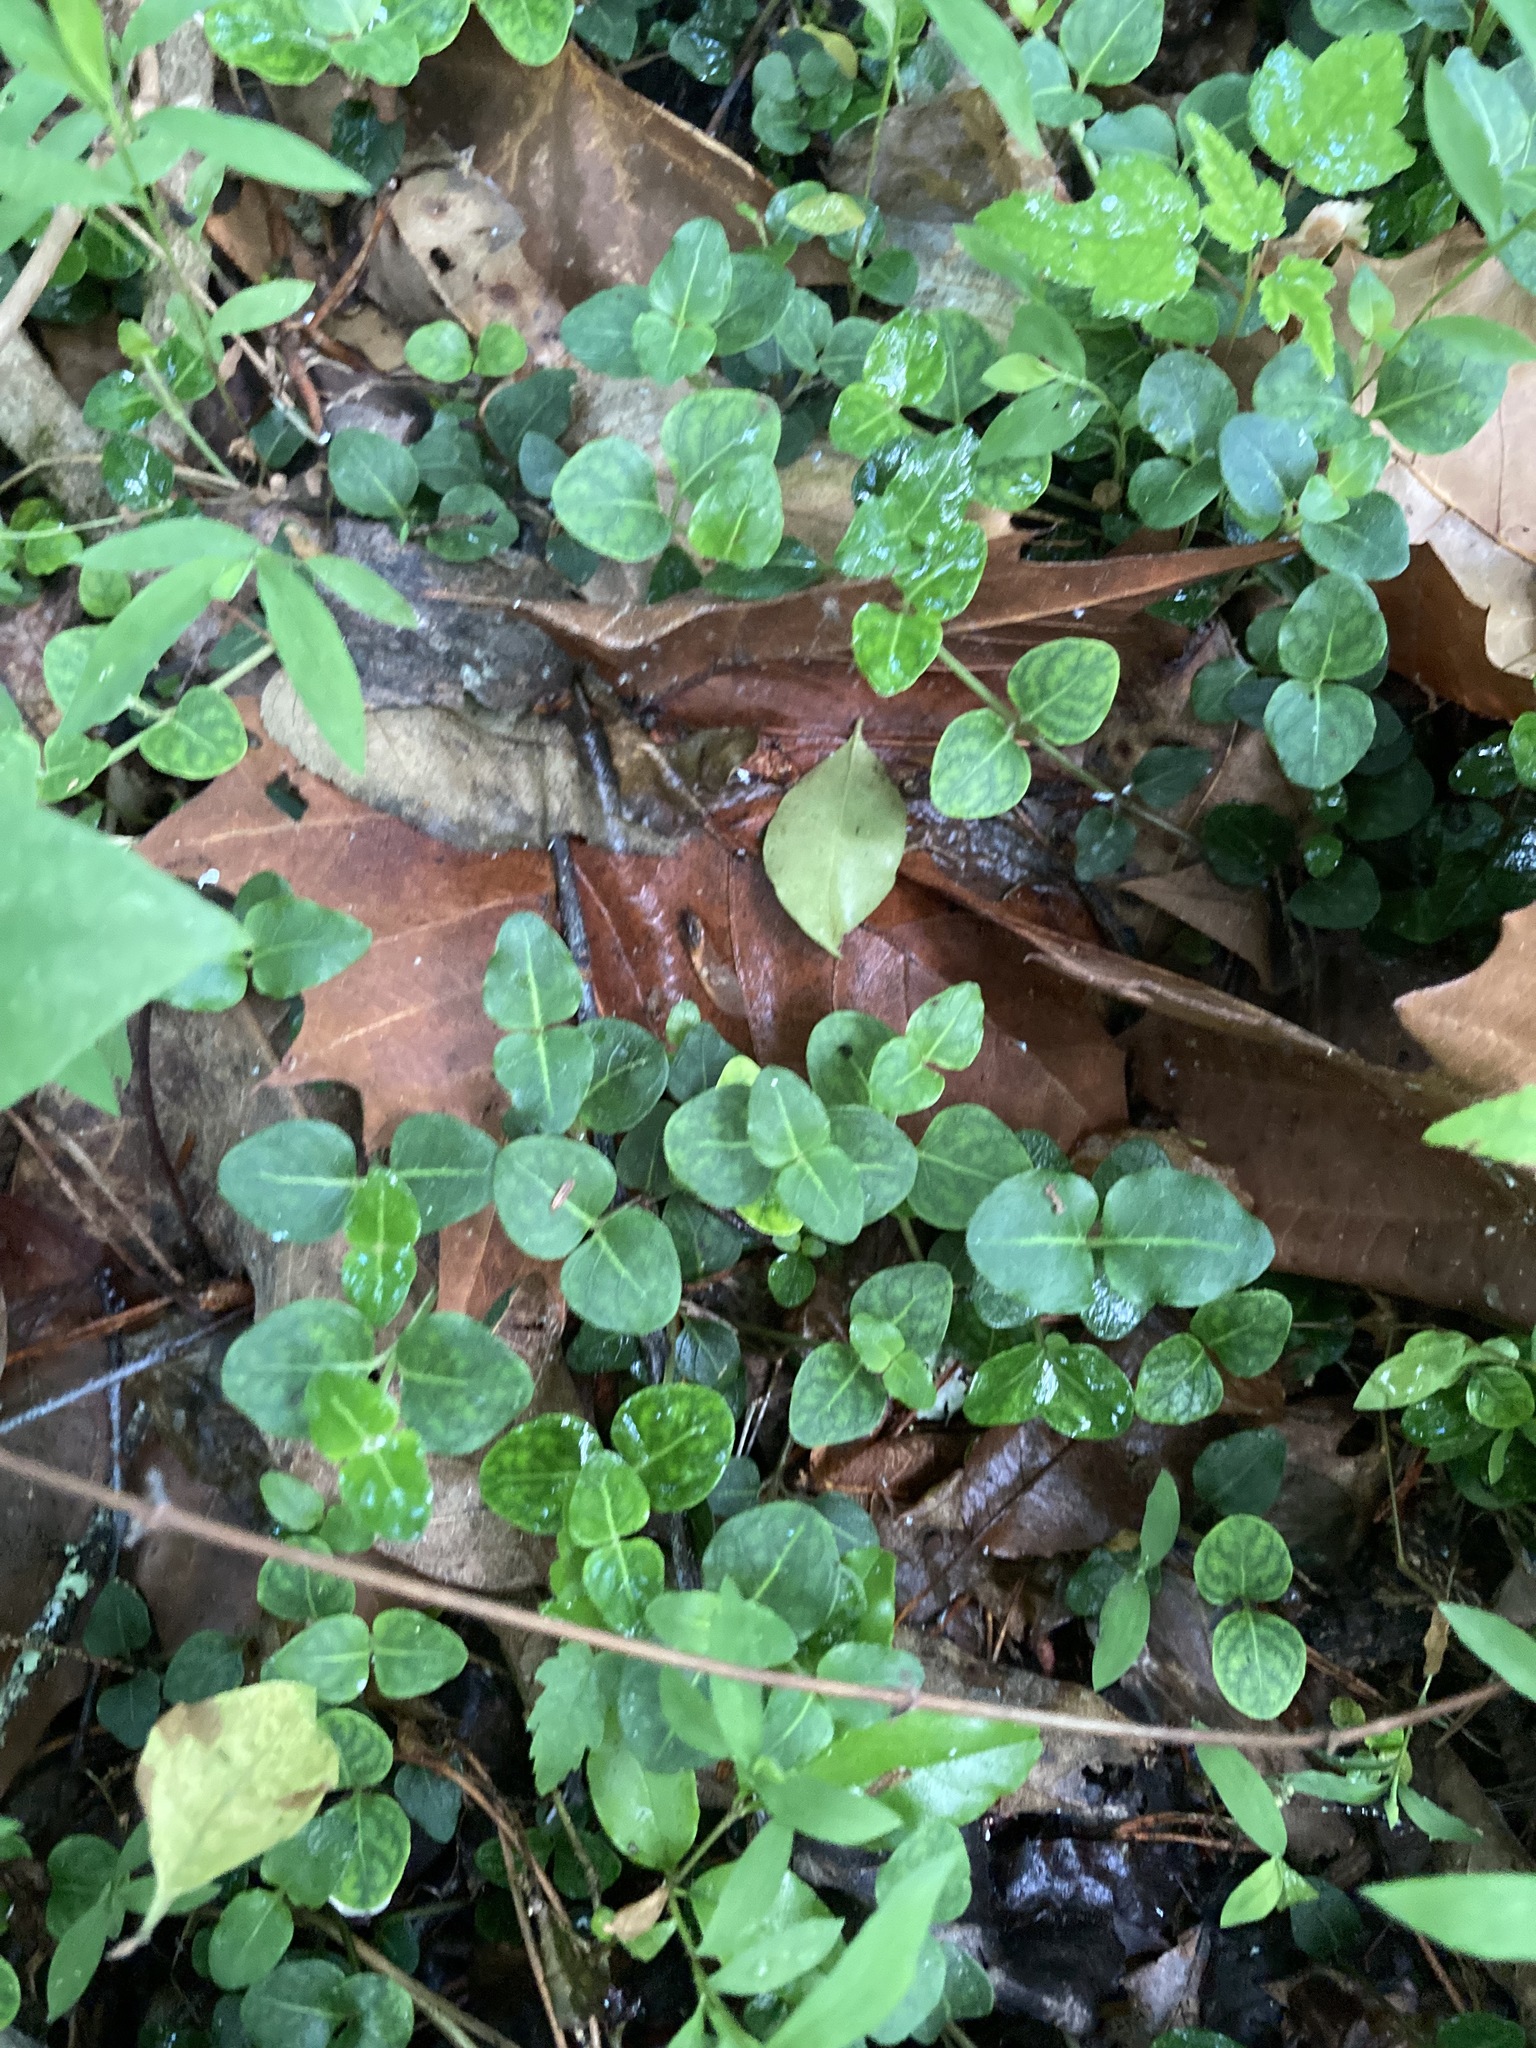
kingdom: Plantae
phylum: Tracheophyta
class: Magnoliopsida
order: Gentianales
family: Rubiaceae
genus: Mitchella
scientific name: Mitchella repens
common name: Partridge-berry
